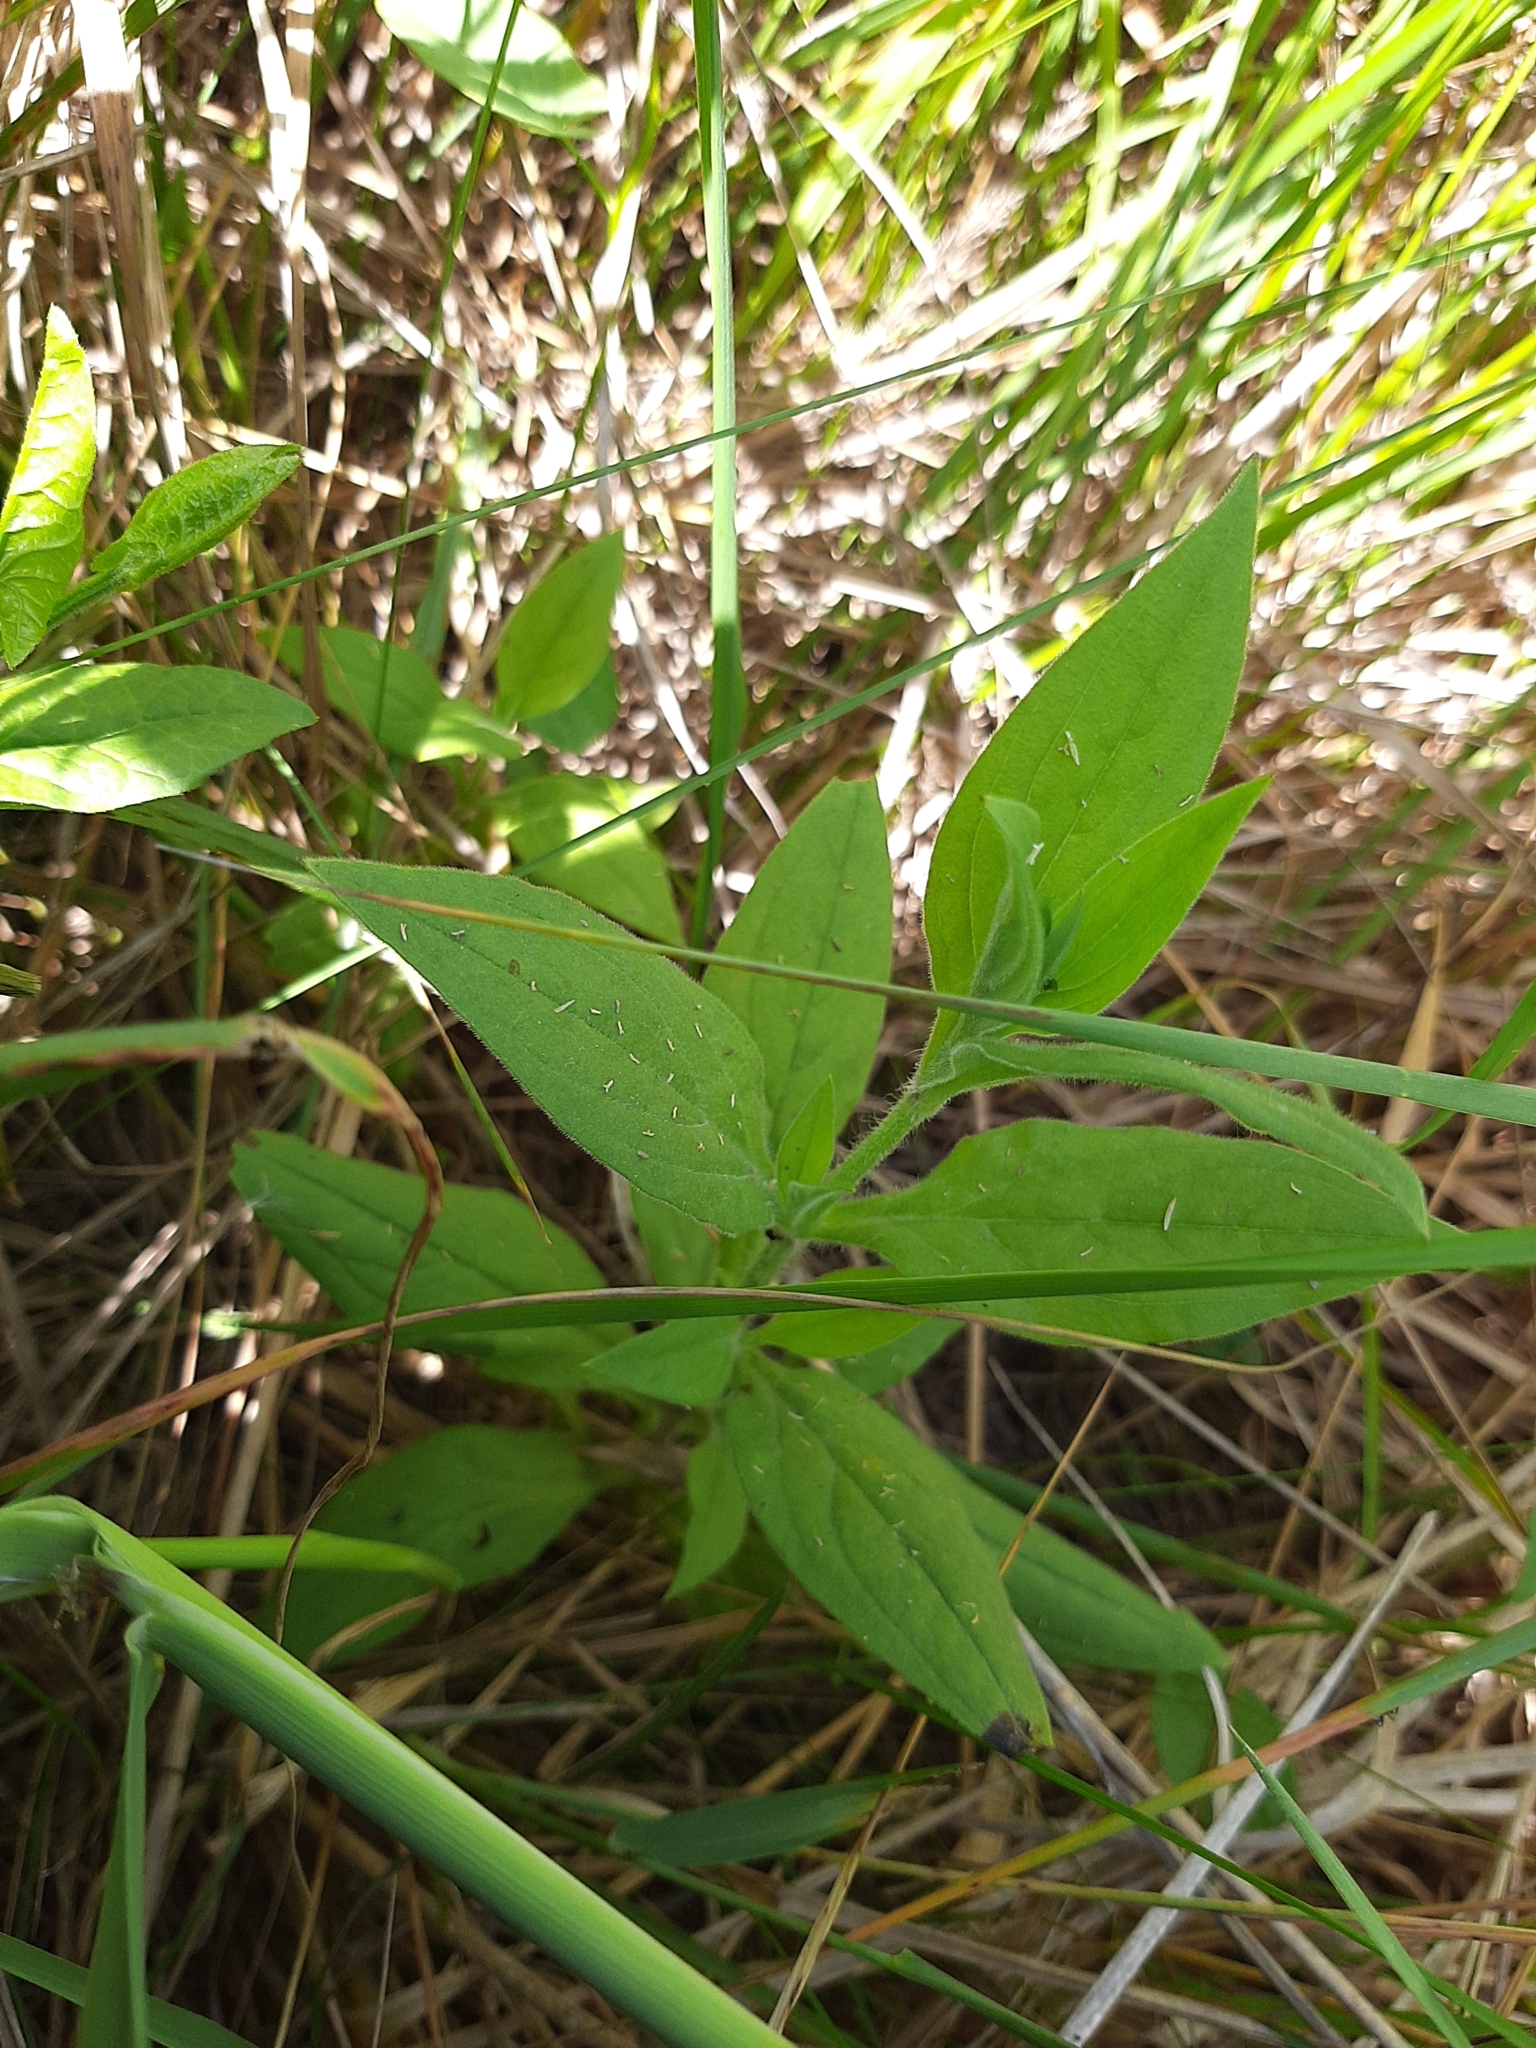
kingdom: Plantae
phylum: Tracheophyta
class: Magnoliopsida
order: Caryophyllales
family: Caryophyllaceae
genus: Silene
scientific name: Silene latifolia
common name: White campion
